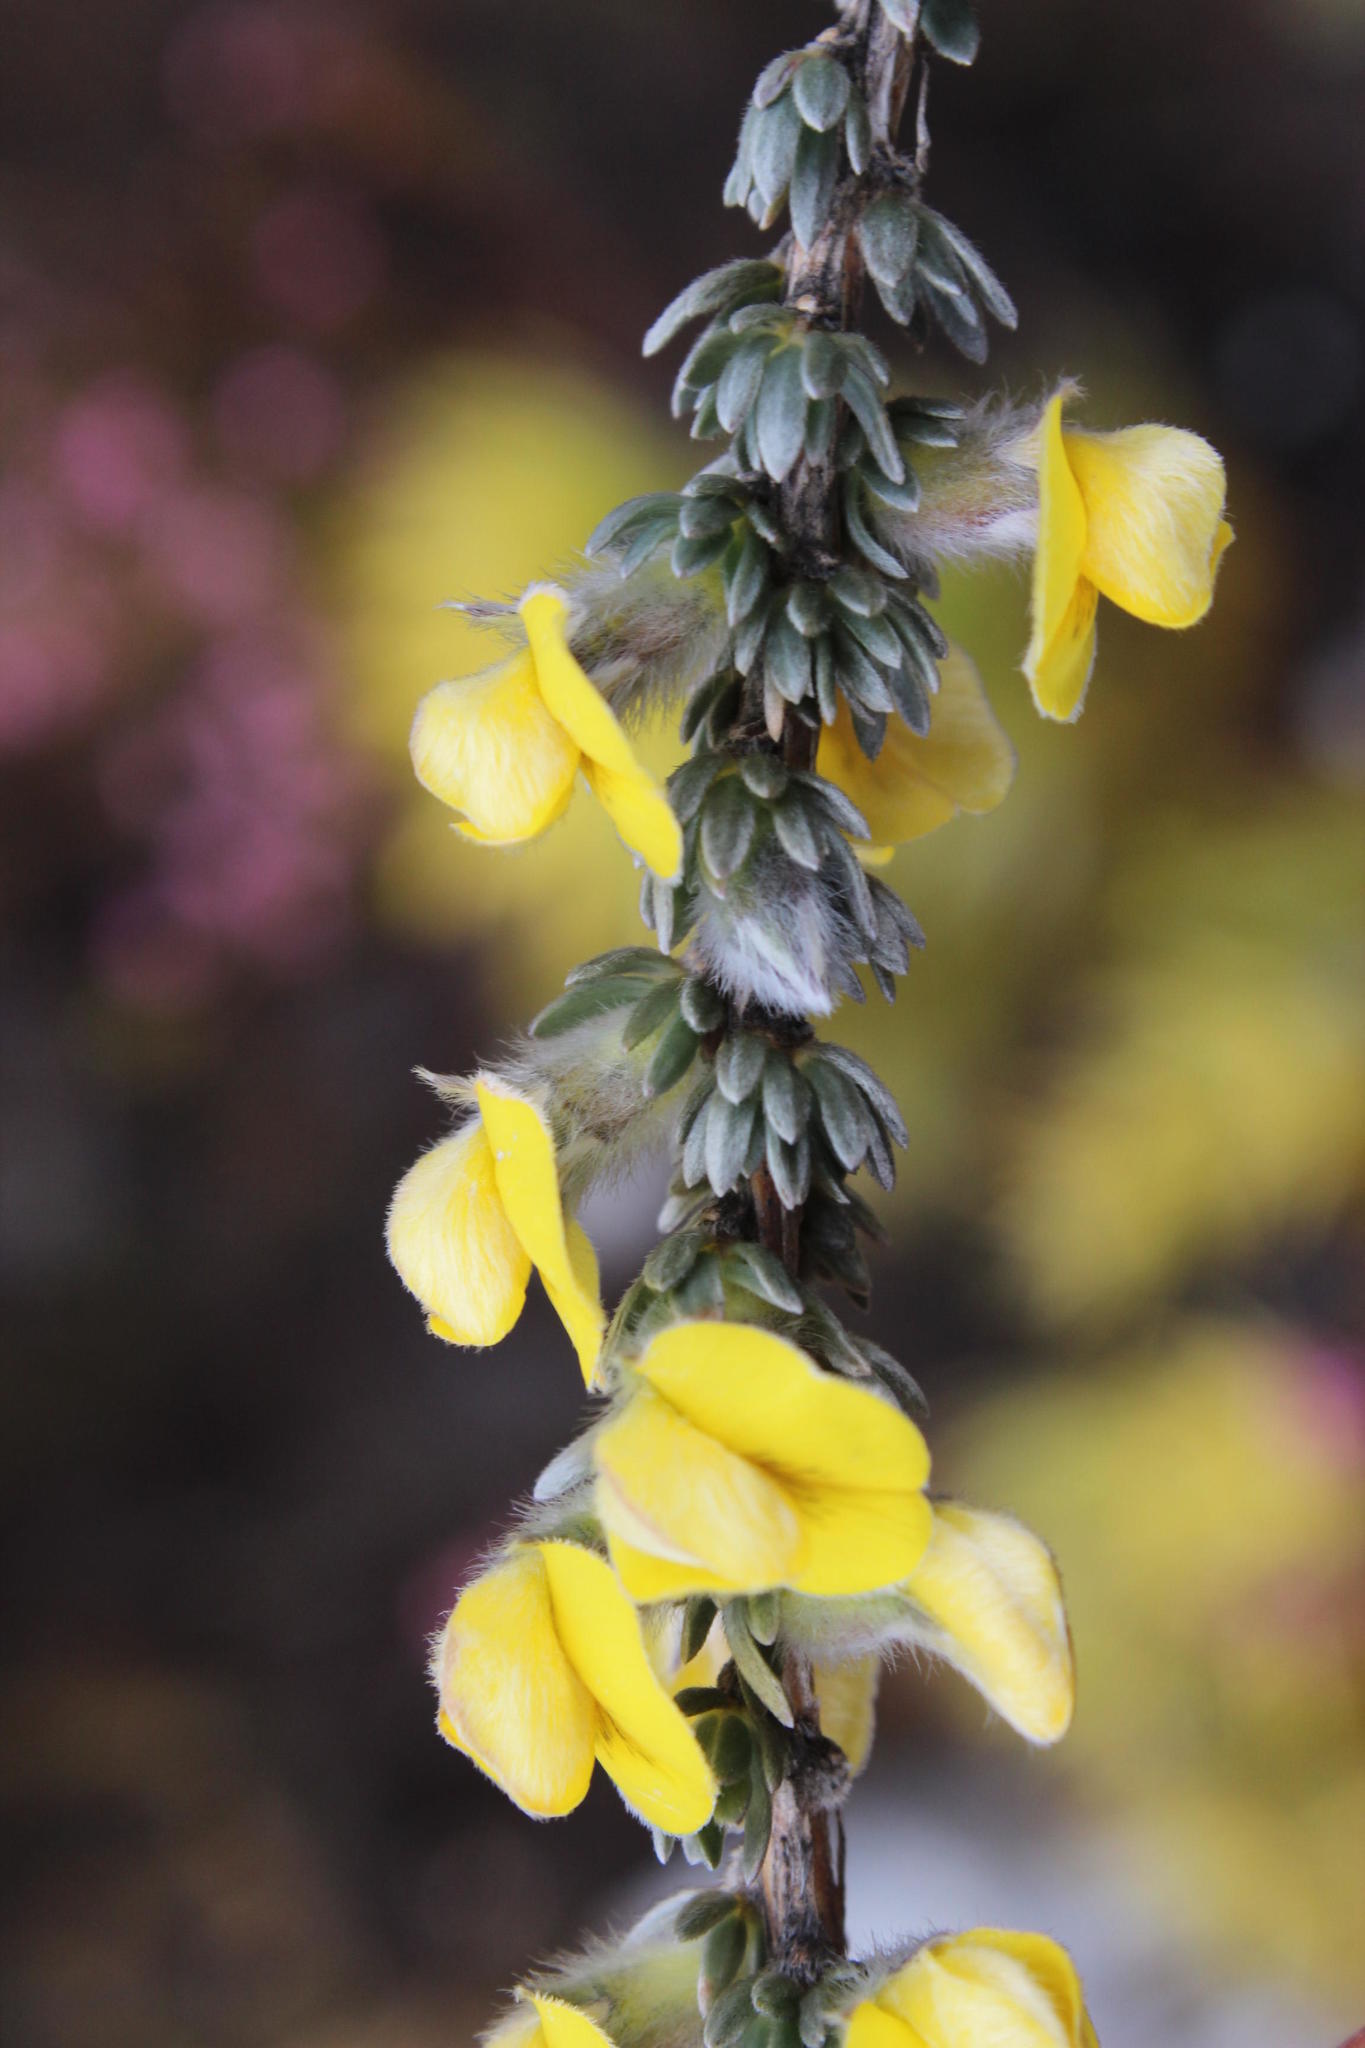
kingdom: Plantae
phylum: Tracheophyta
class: Magnoliopsida
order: Fabales
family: Fabaceae
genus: Aspalathus
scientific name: Aspalathus caledonensis
